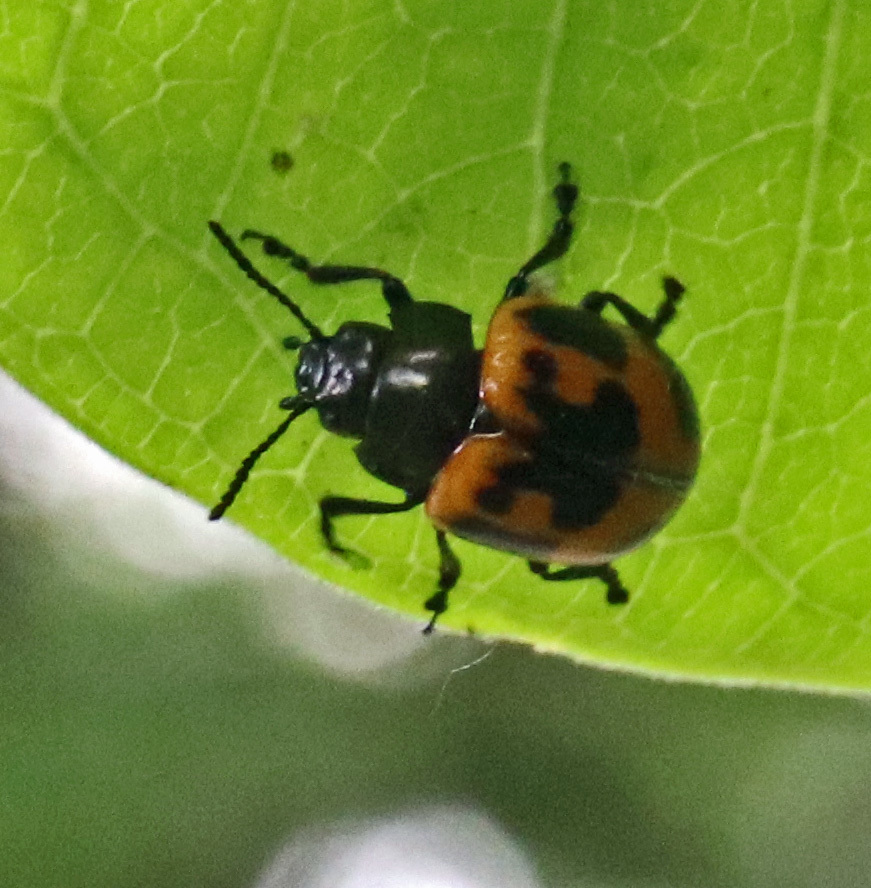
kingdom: Animalia
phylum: Arthropoda
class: Insecta
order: Coleoptera
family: Chrysomelidae
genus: Labidomera
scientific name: Labidomera clivicollis
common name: Swamp milkweed leaf beetle
